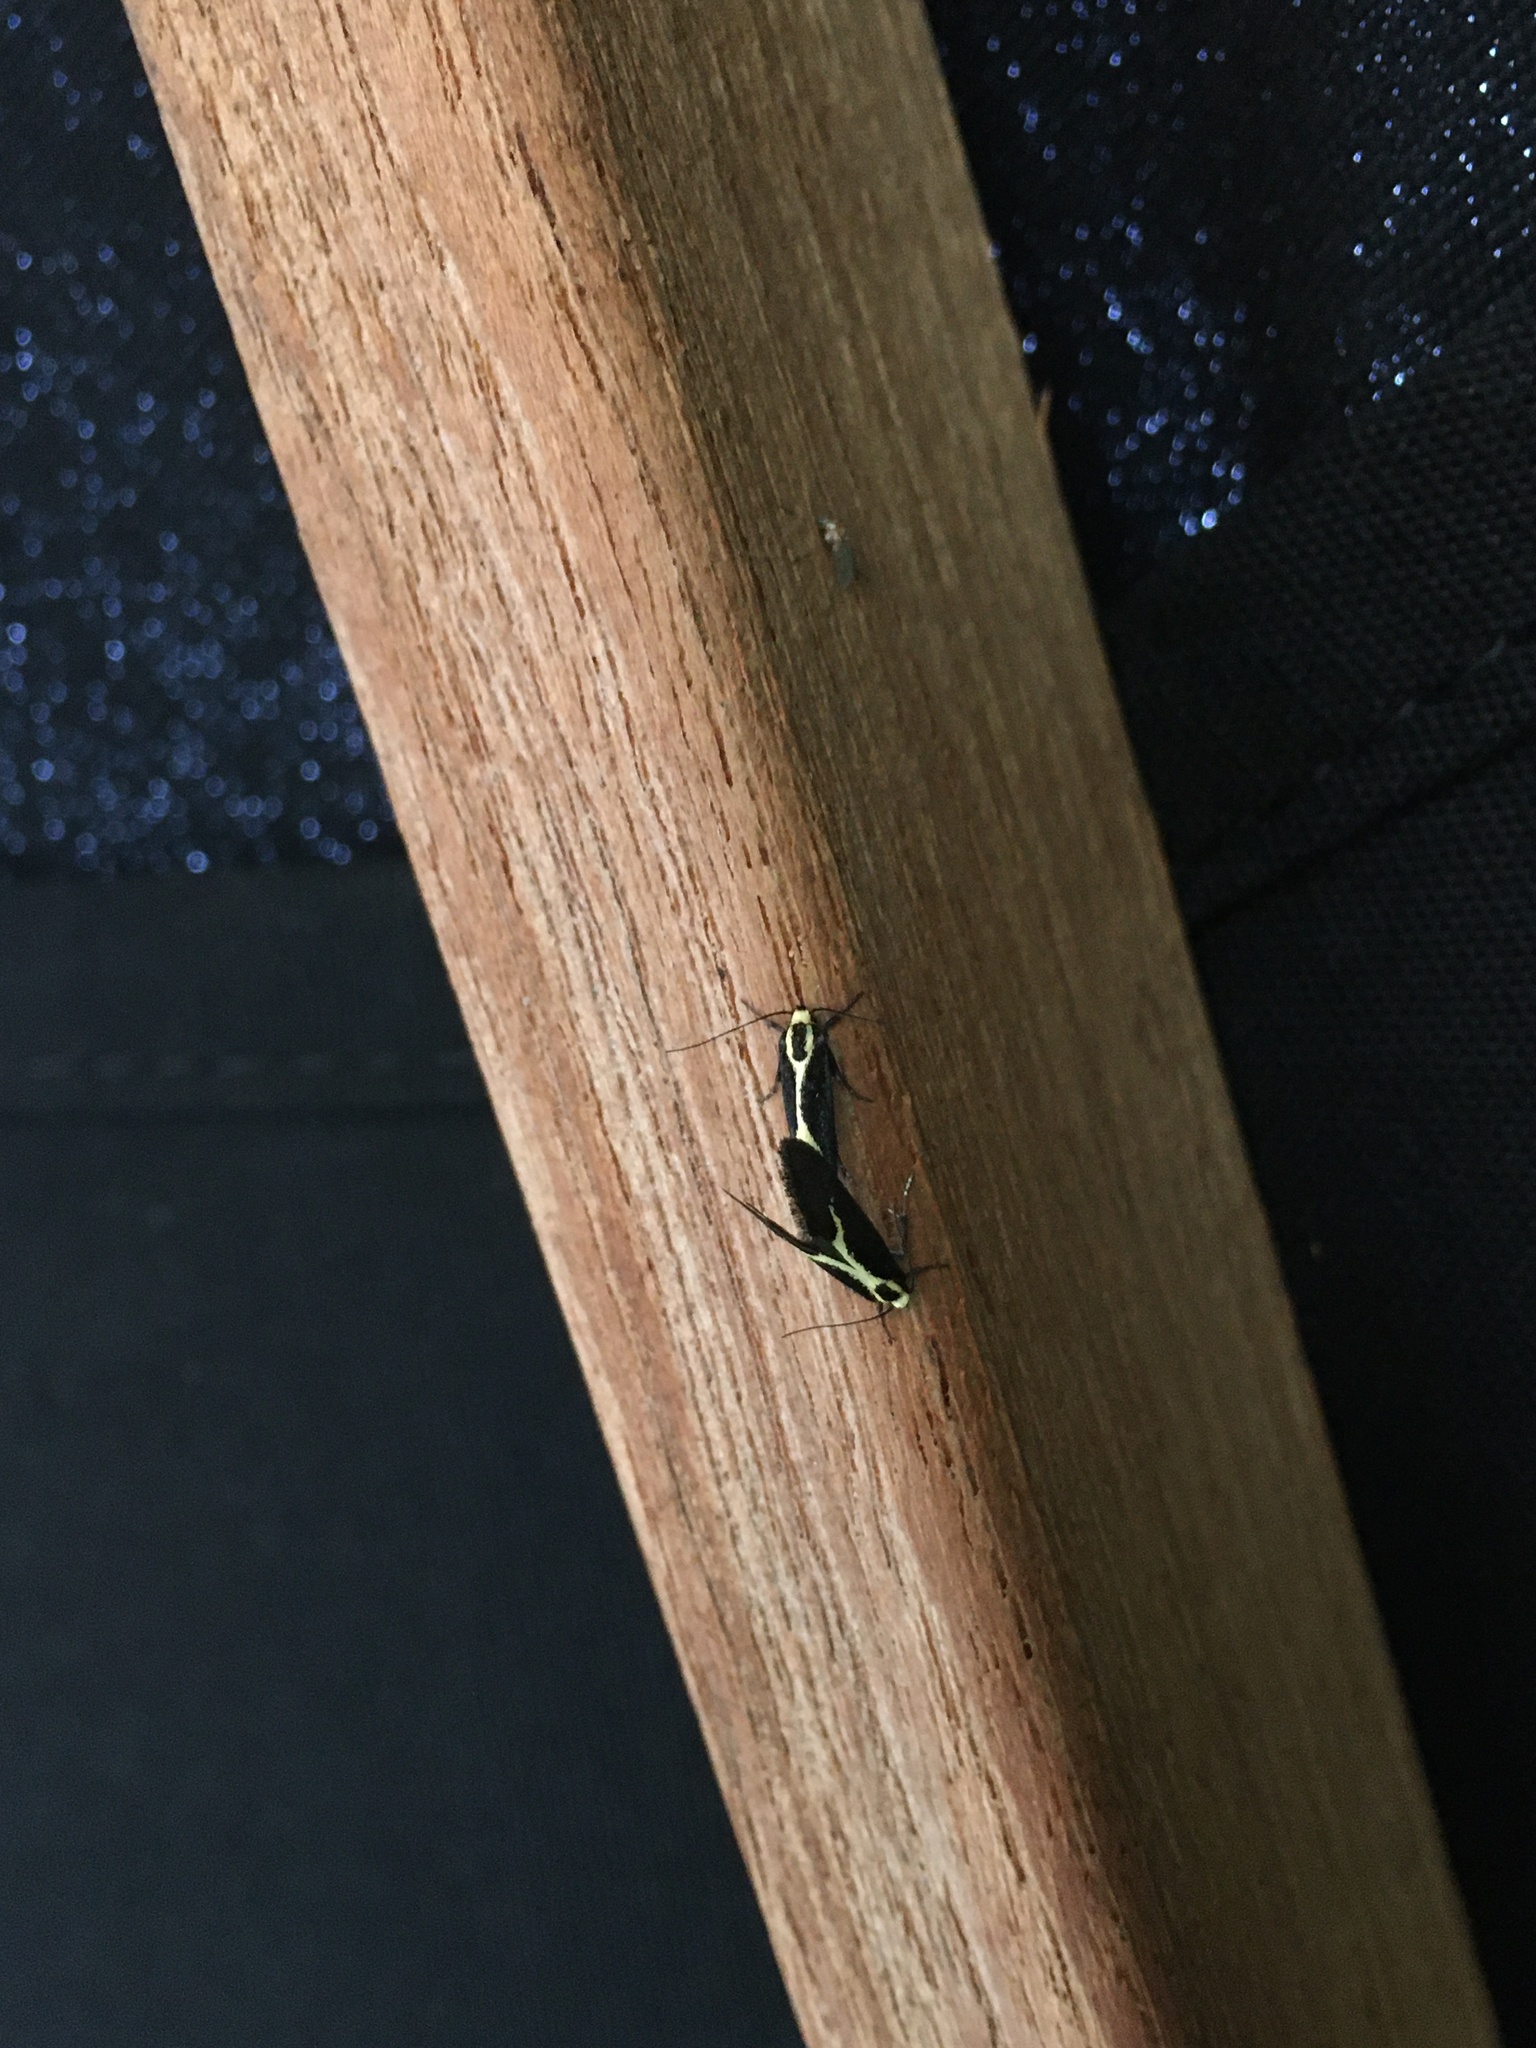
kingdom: Animalia
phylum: Arthropoda
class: Insecta
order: Lepidoptera
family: Oecophoridae
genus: Polix
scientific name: Polix coloradella
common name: Skunk moth
